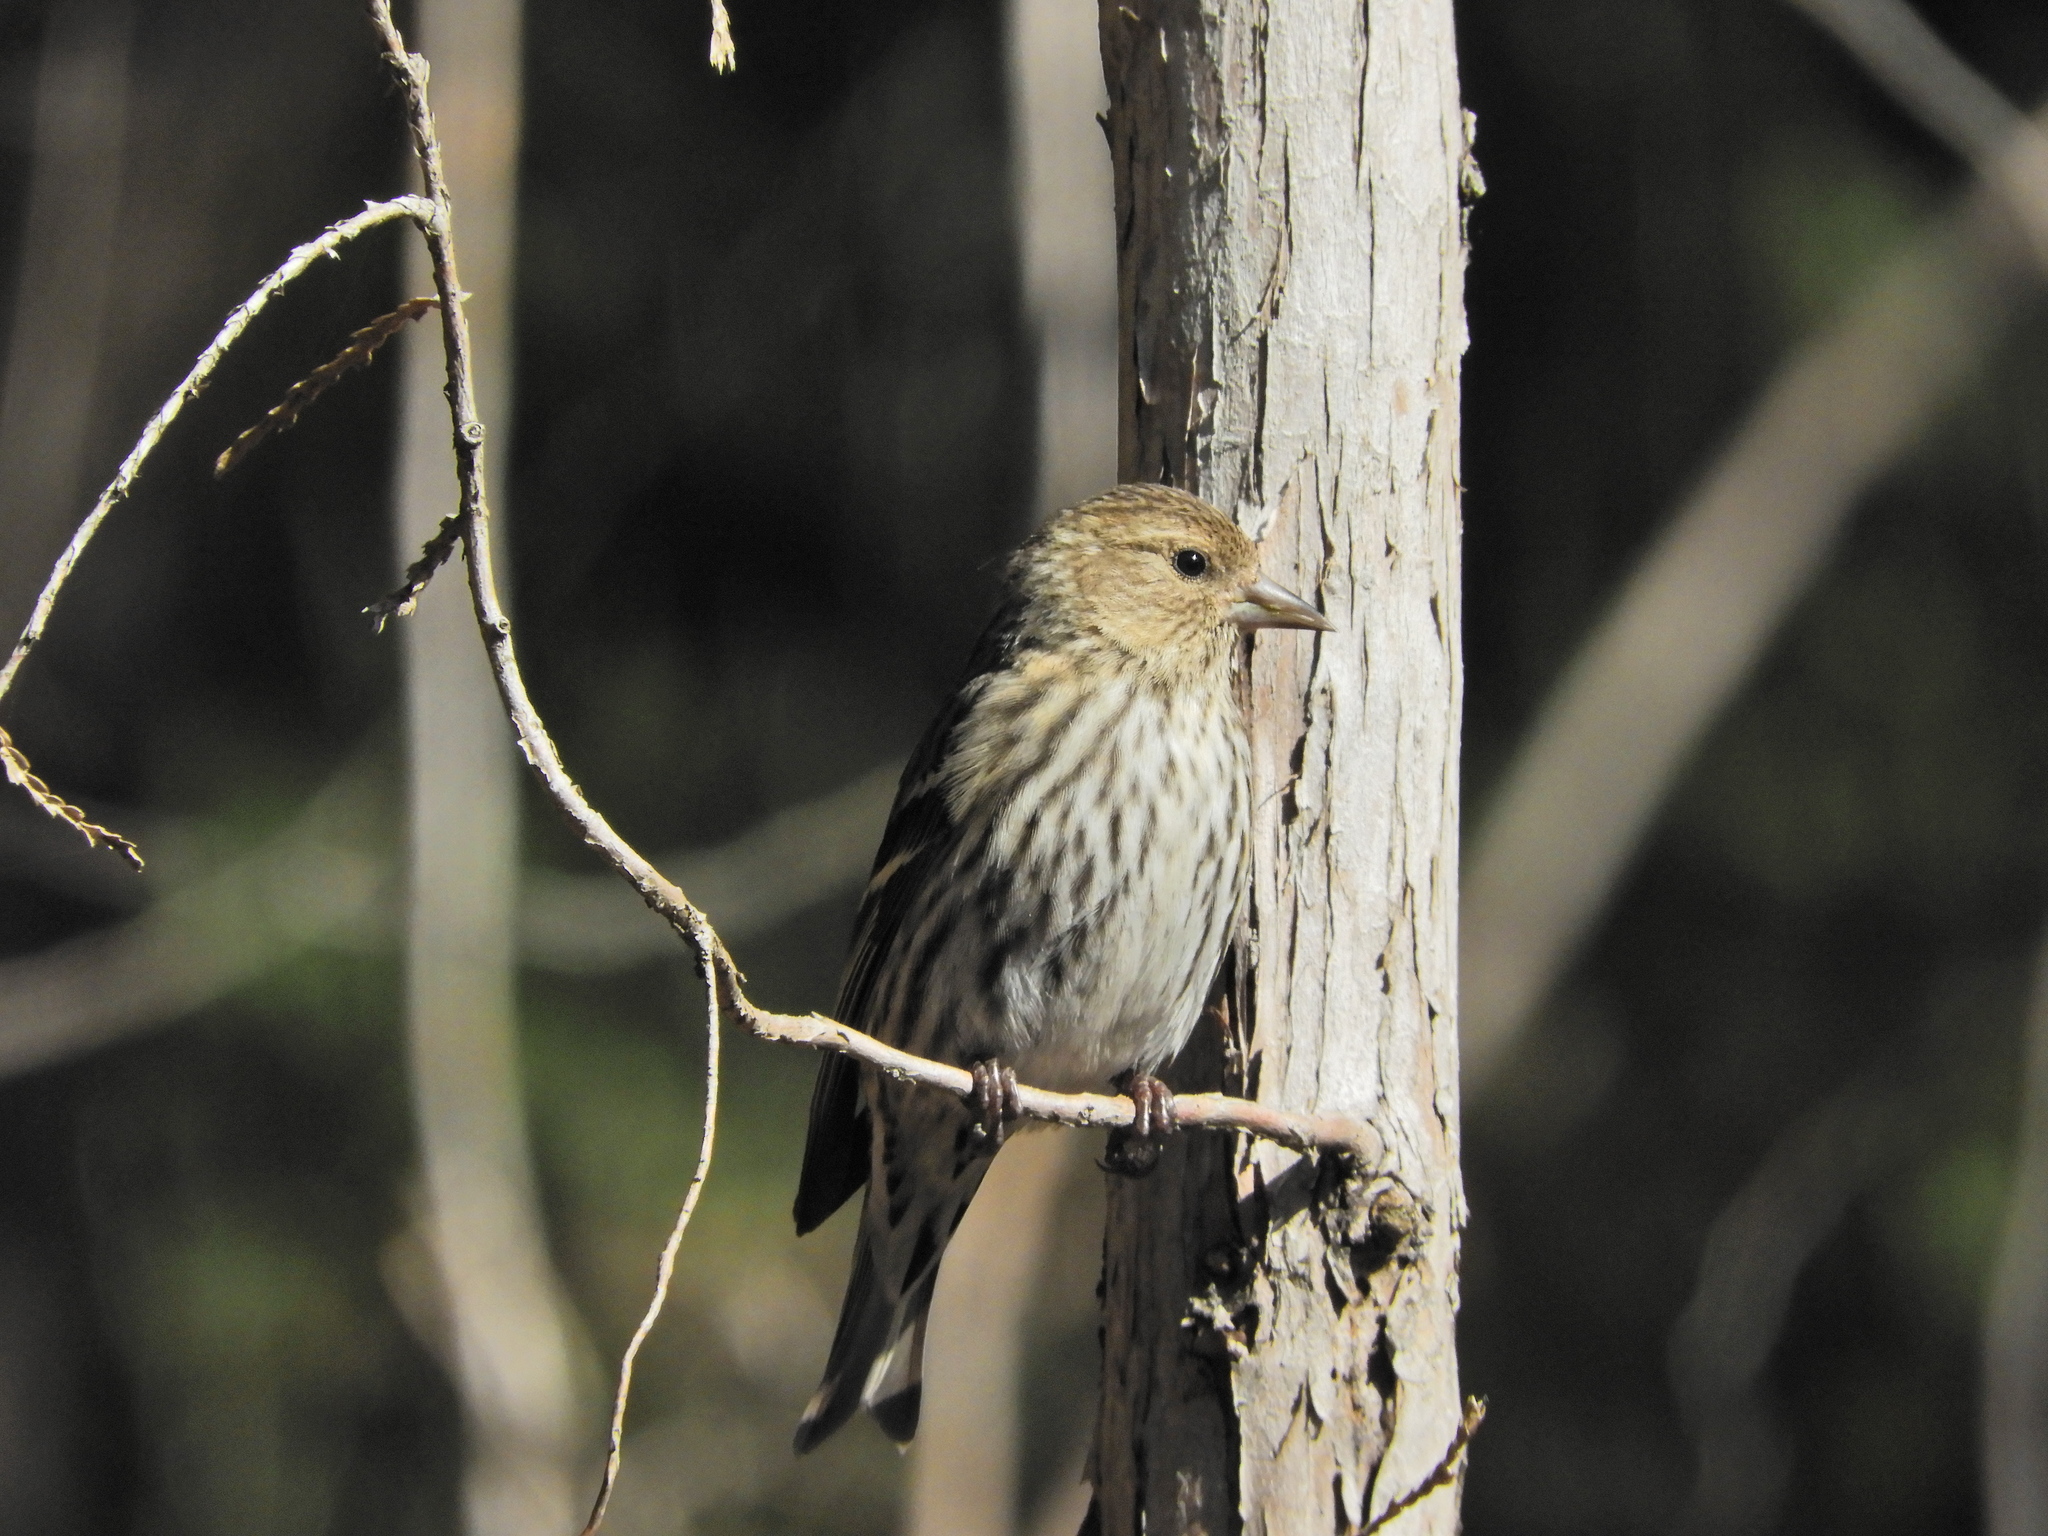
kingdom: Animalia
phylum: Chordata
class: Aves
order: Passeriformes
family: Fringillidae
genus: Spinus
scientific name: Spinus pinus
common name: Pine siskin
